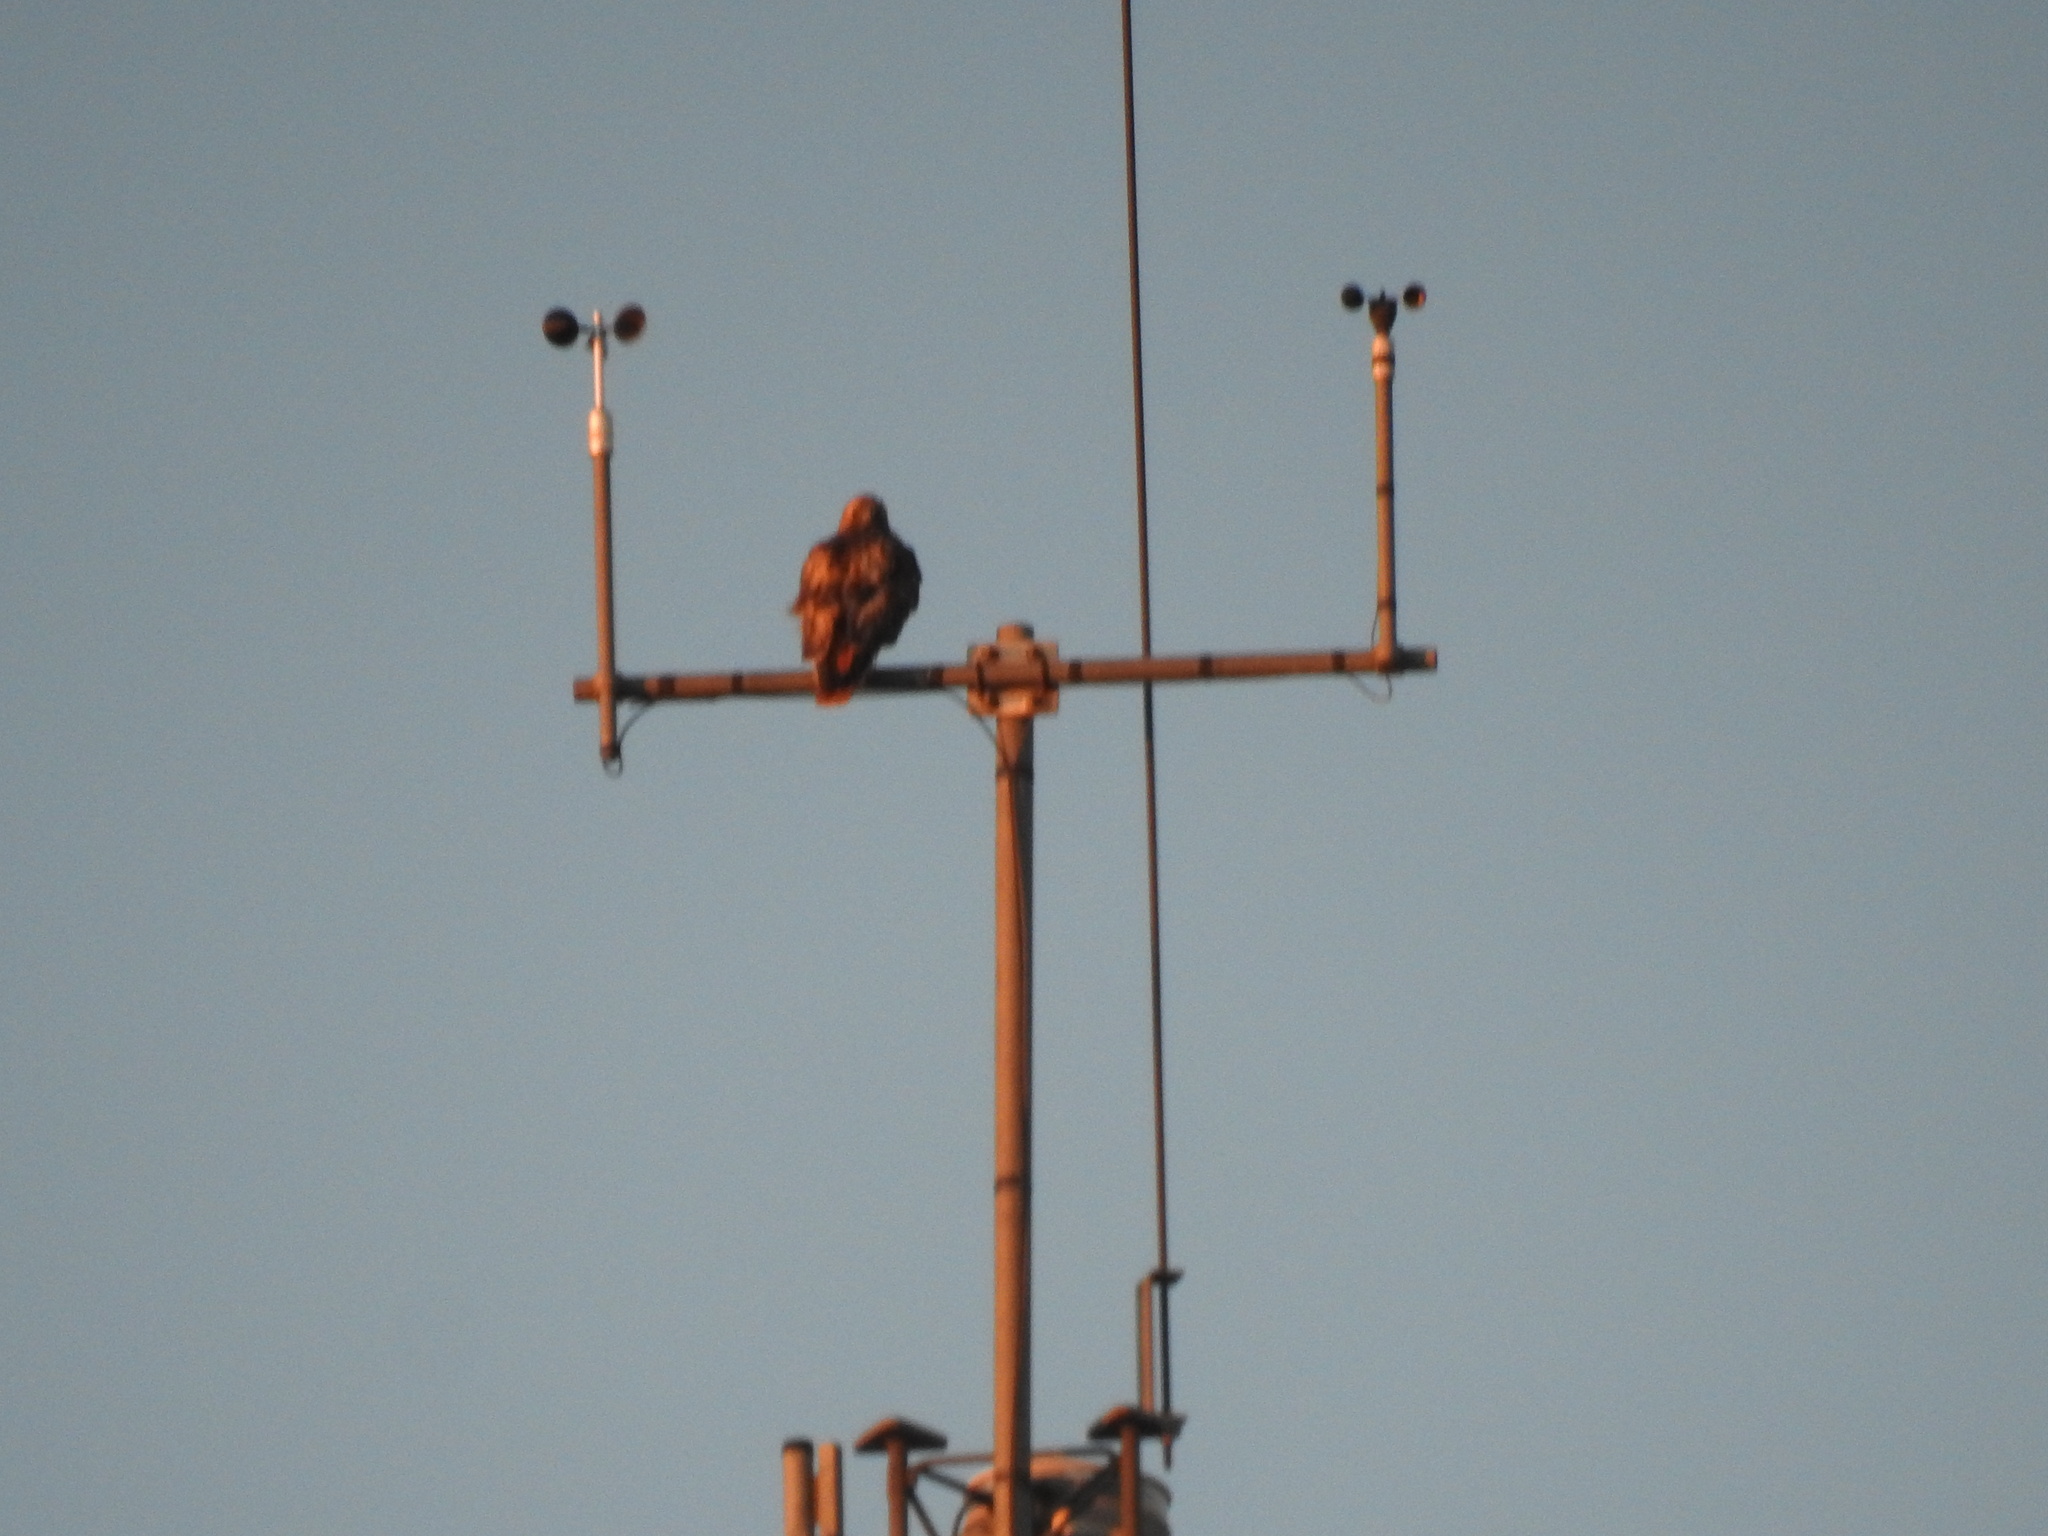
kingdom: Animalia
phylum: Chordata
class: Aves
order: Accipitriformes
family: Accipitridae
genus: Buteo
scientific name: Buteo jamaicensis
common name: Red-tailed hawk
